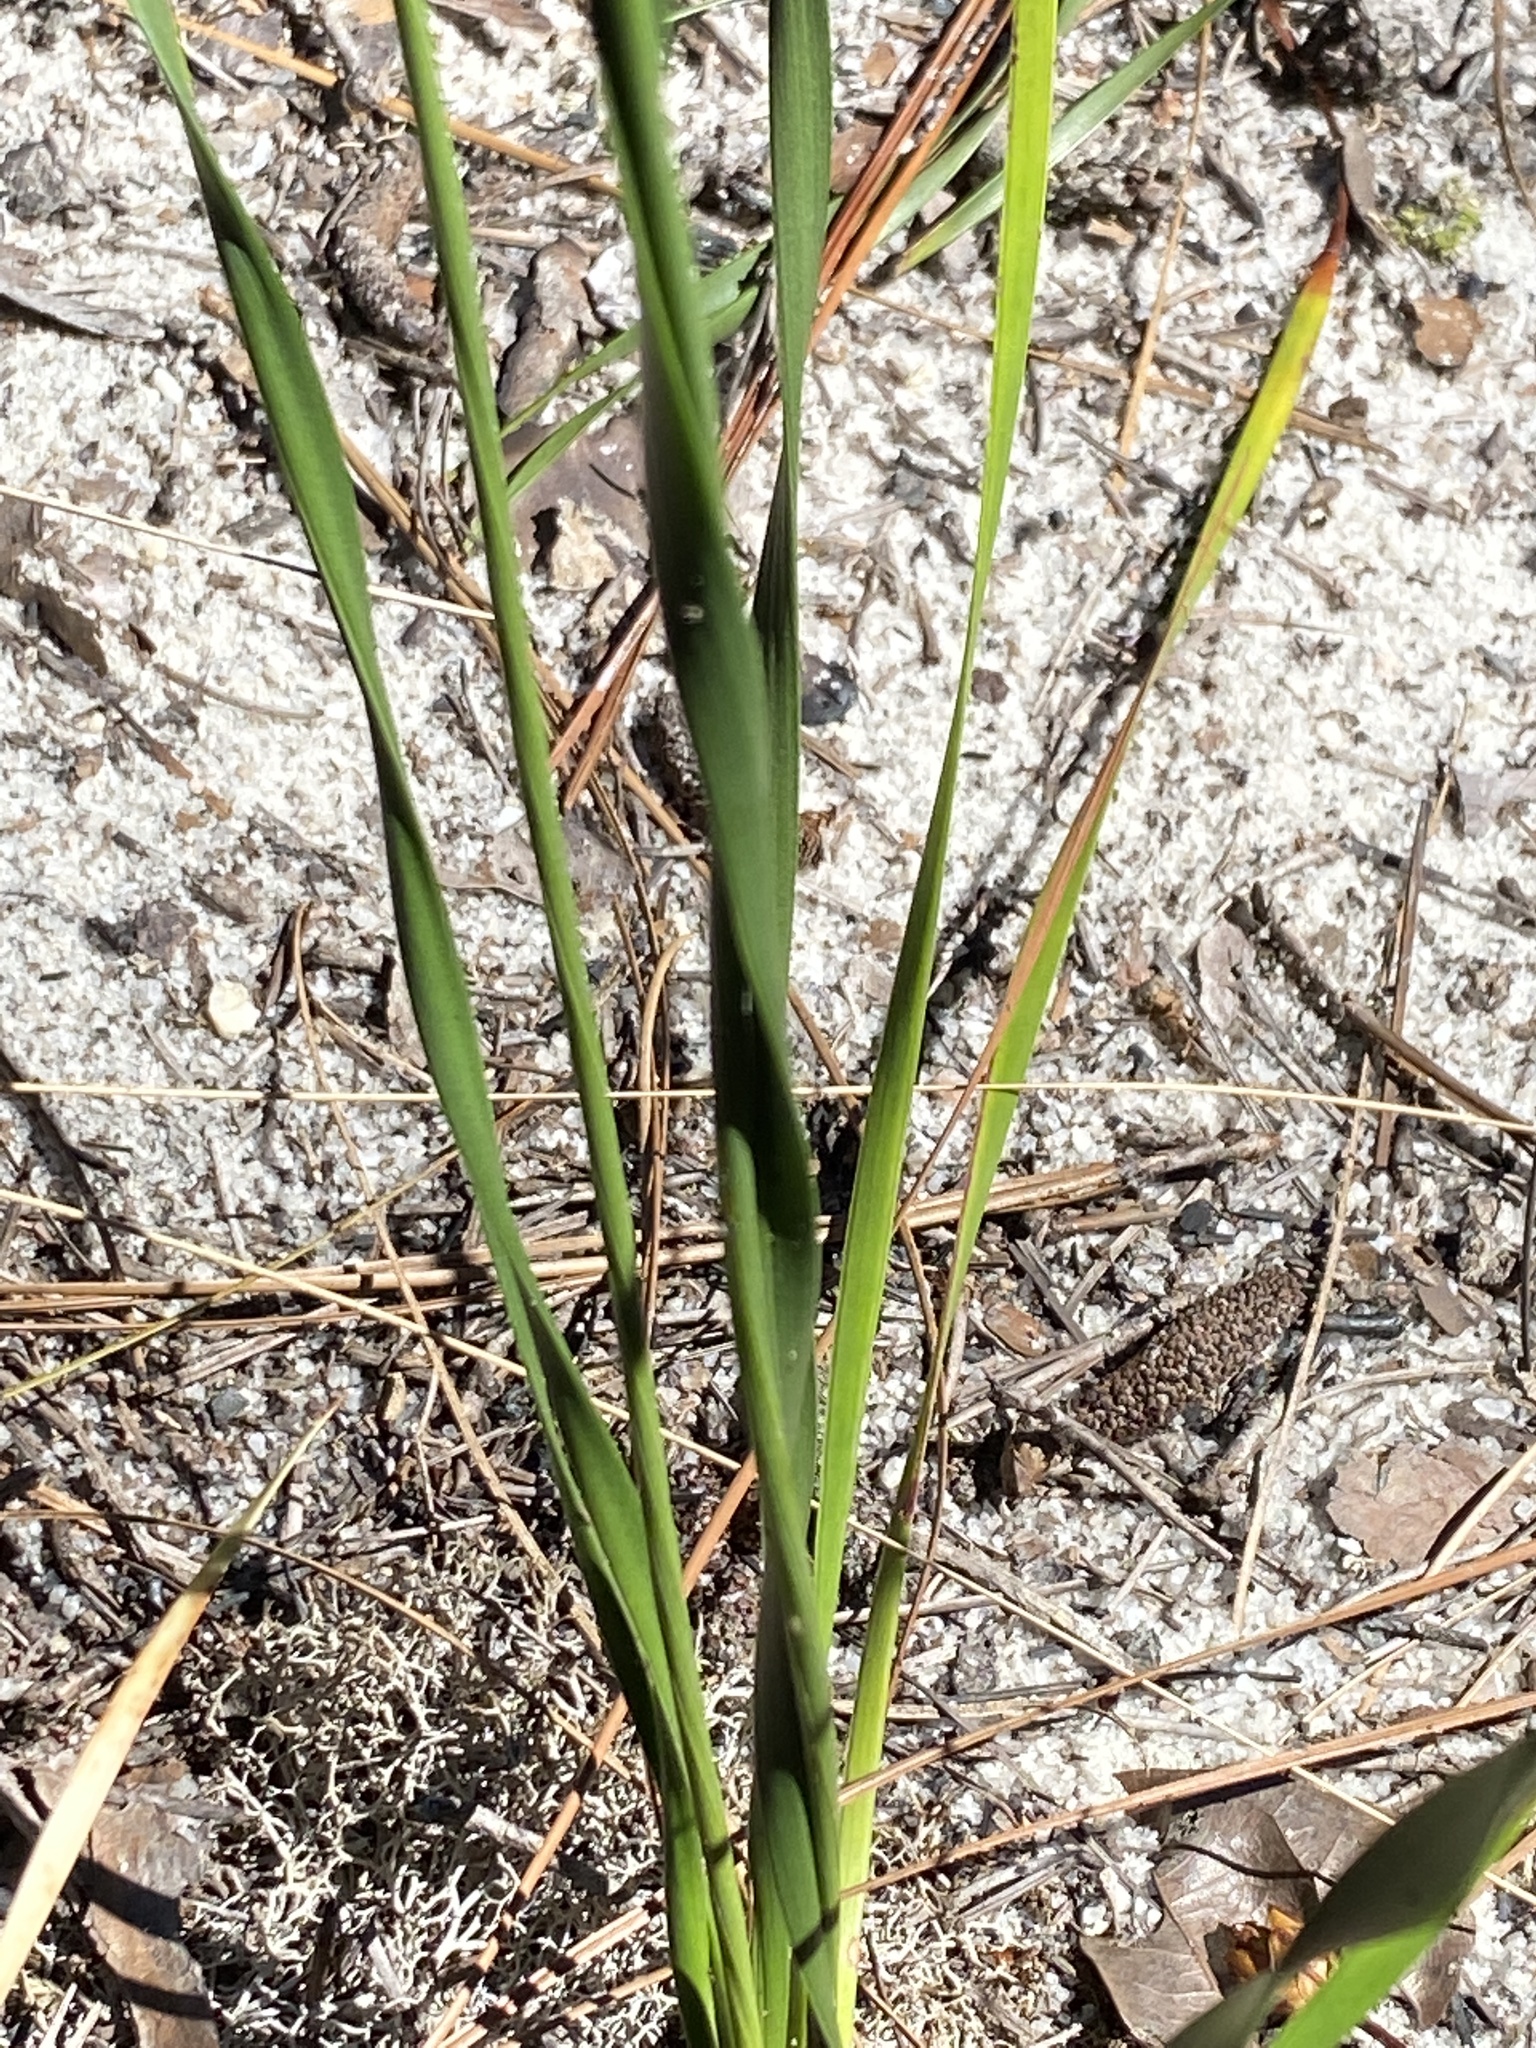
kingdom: Plantae
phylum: Tracheophyta
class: Liliopsida
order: Poales
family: Xyridaceae
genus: Xyris
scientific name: Xyris caroliniana
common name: Carolina yellow-eyed-grass
